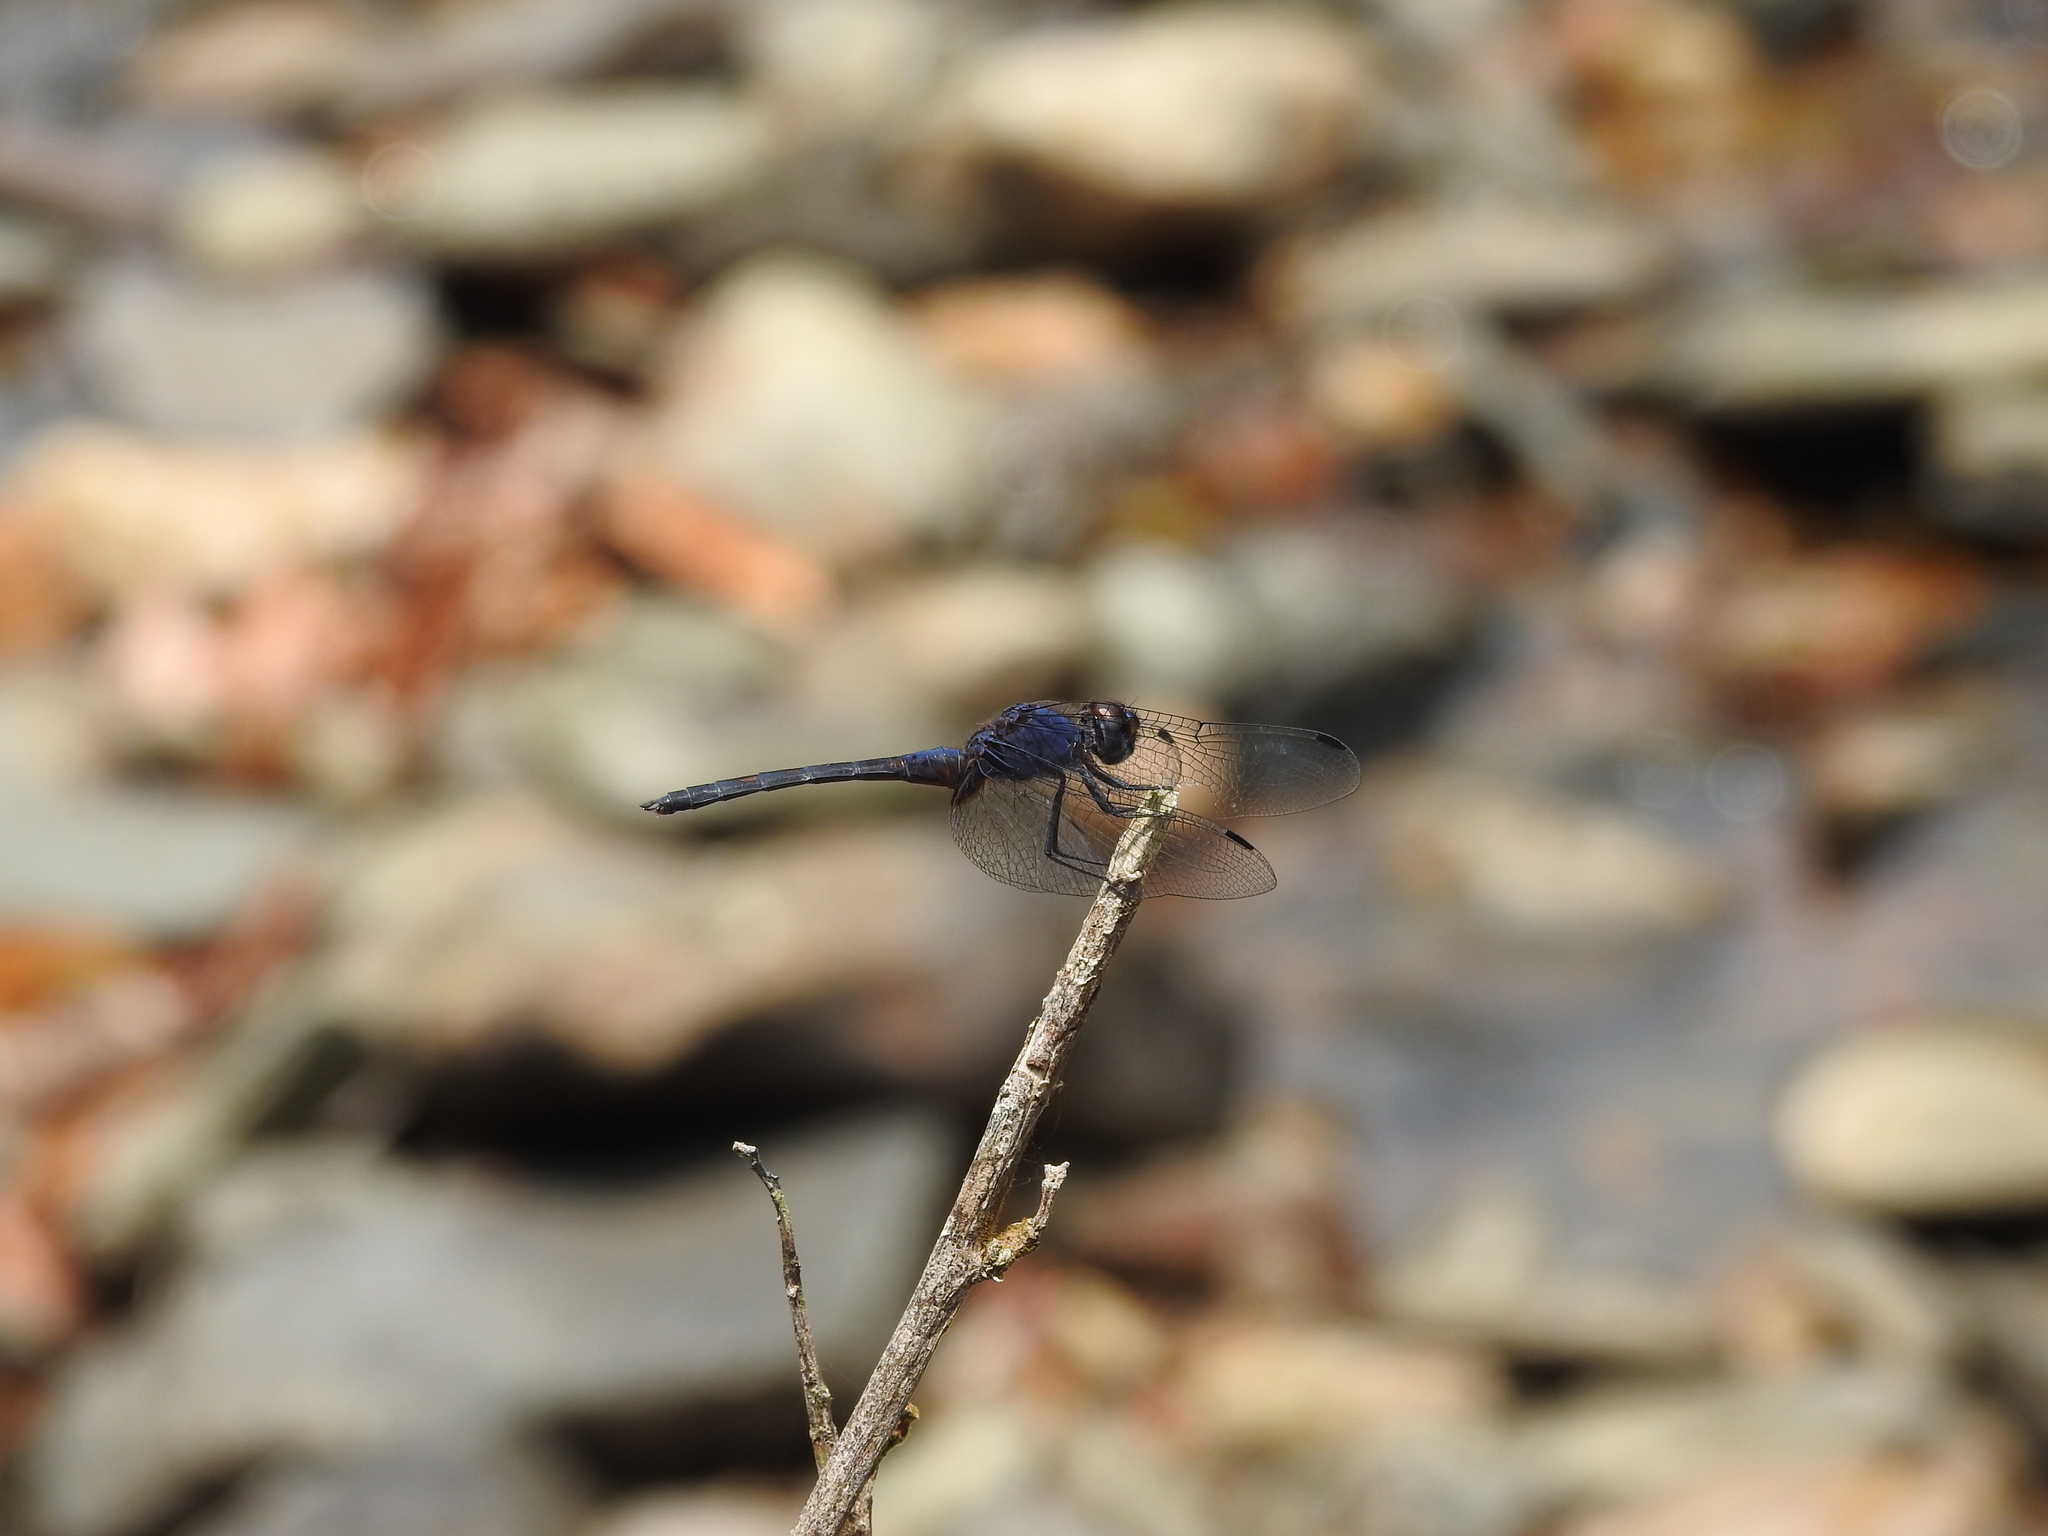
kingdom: Animalia
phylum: Arthropoda
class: Insecta
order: Odonata
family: Libellulidae
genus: Trithemis
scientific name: Trithemis festiva
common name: Indigo dropwing
